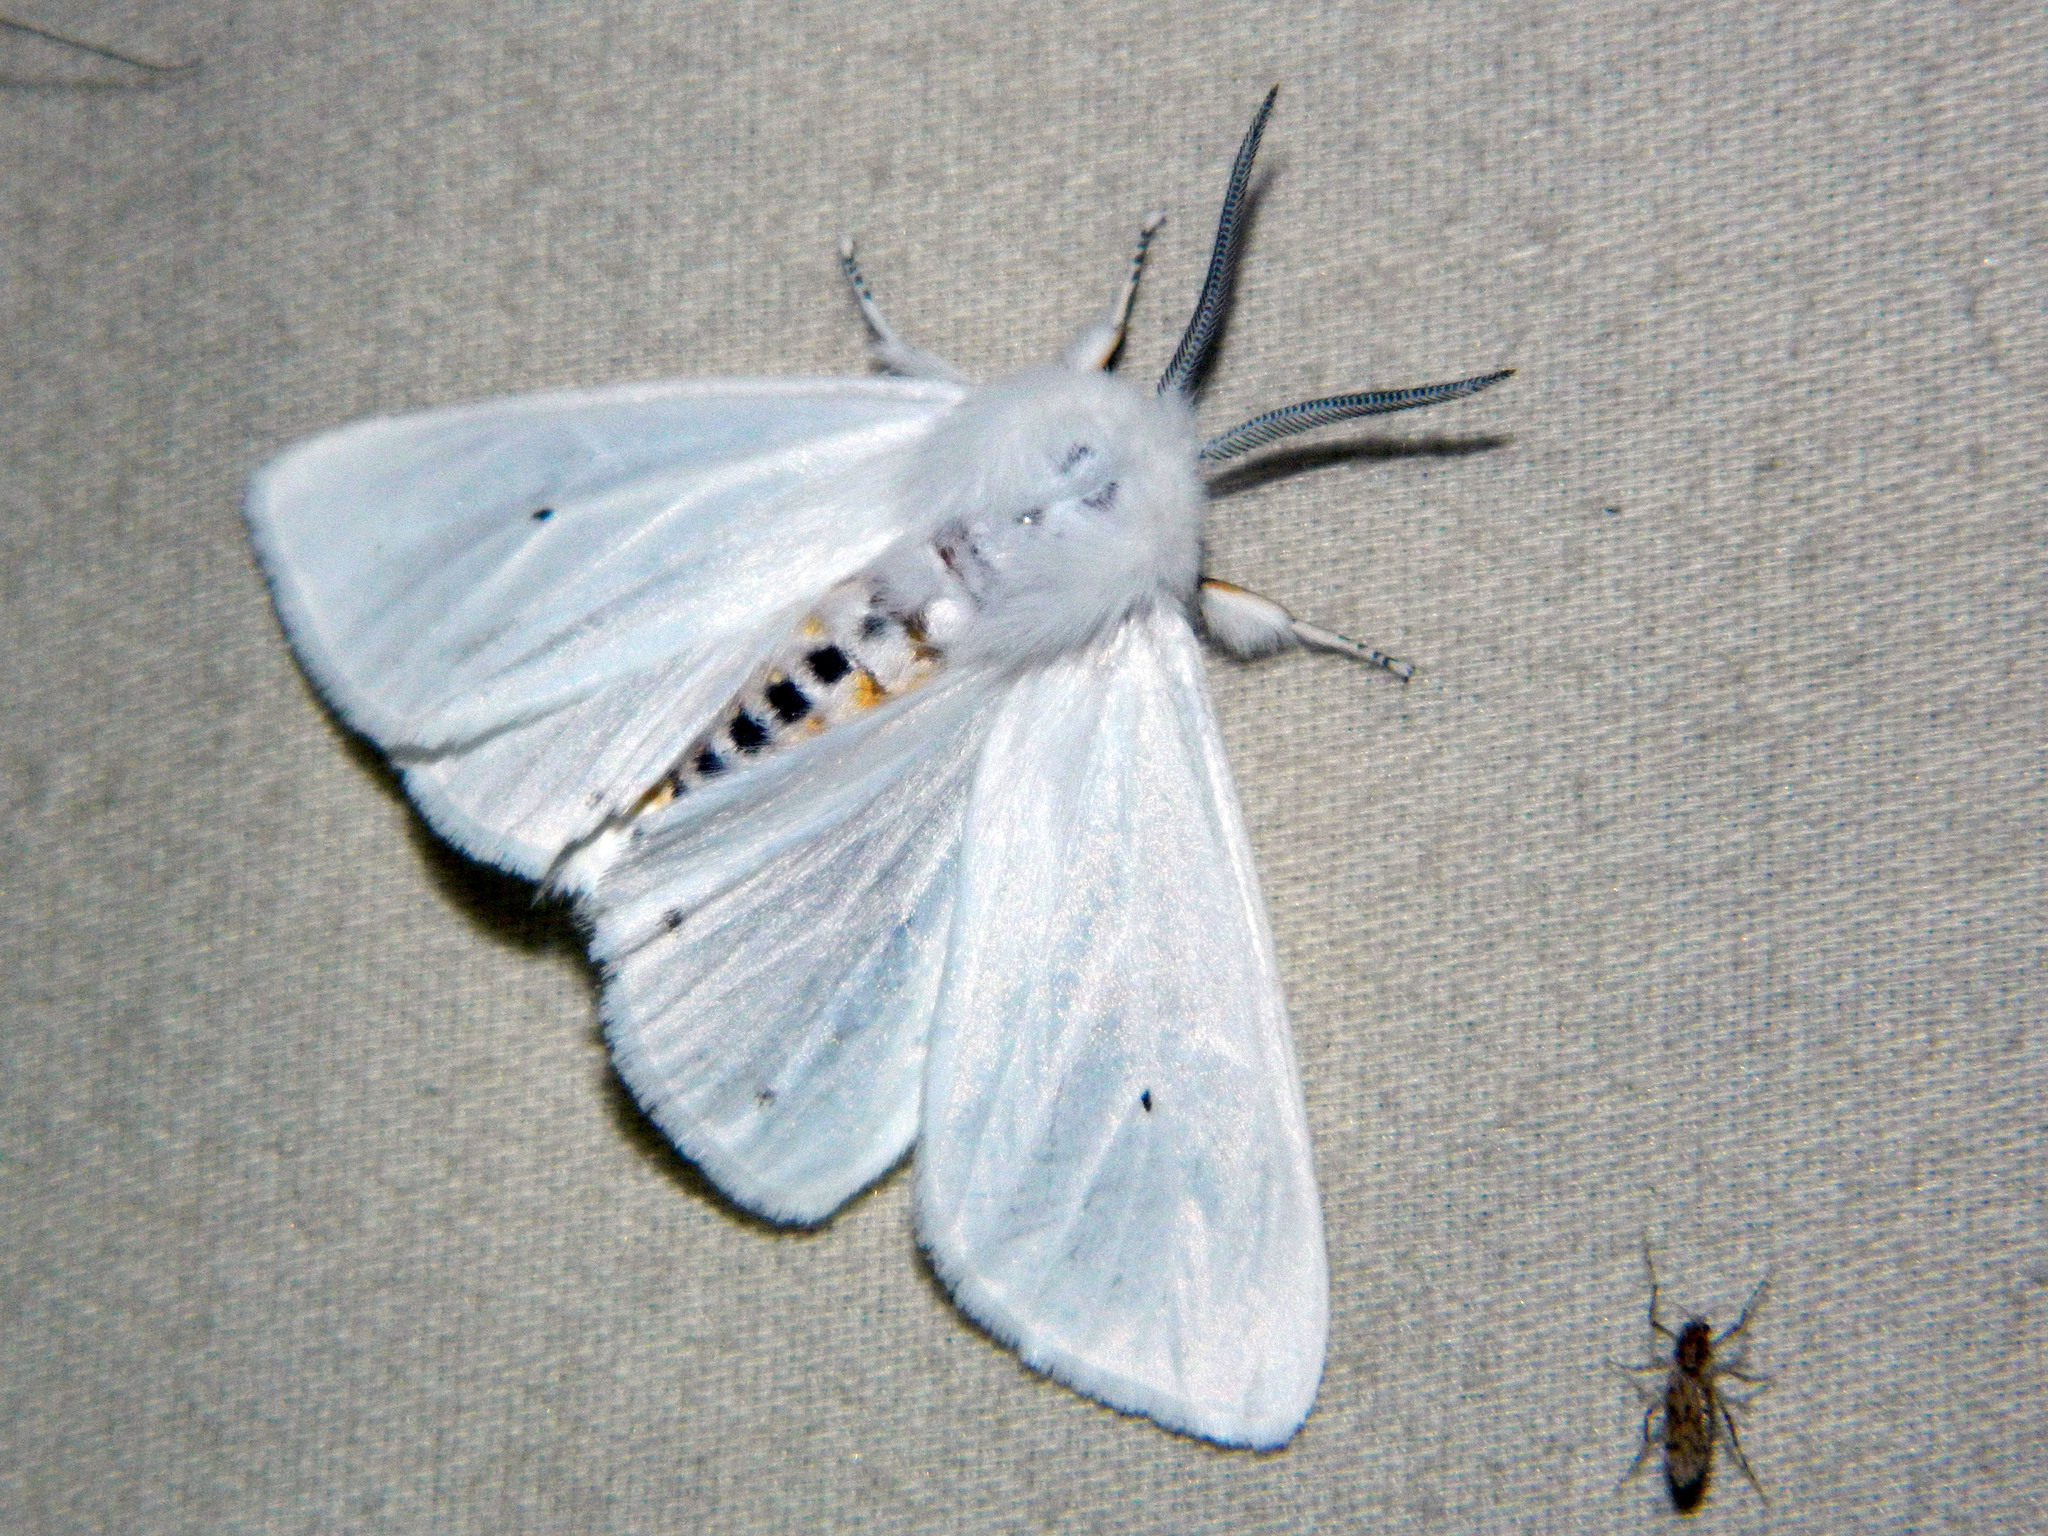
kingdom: Animalia
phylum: Arthropoda
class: Insecta
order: Lepidoptera
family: Erebidae
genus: Spilosoma
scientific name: Spilosoma virginica
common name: Virginia tiger moth
